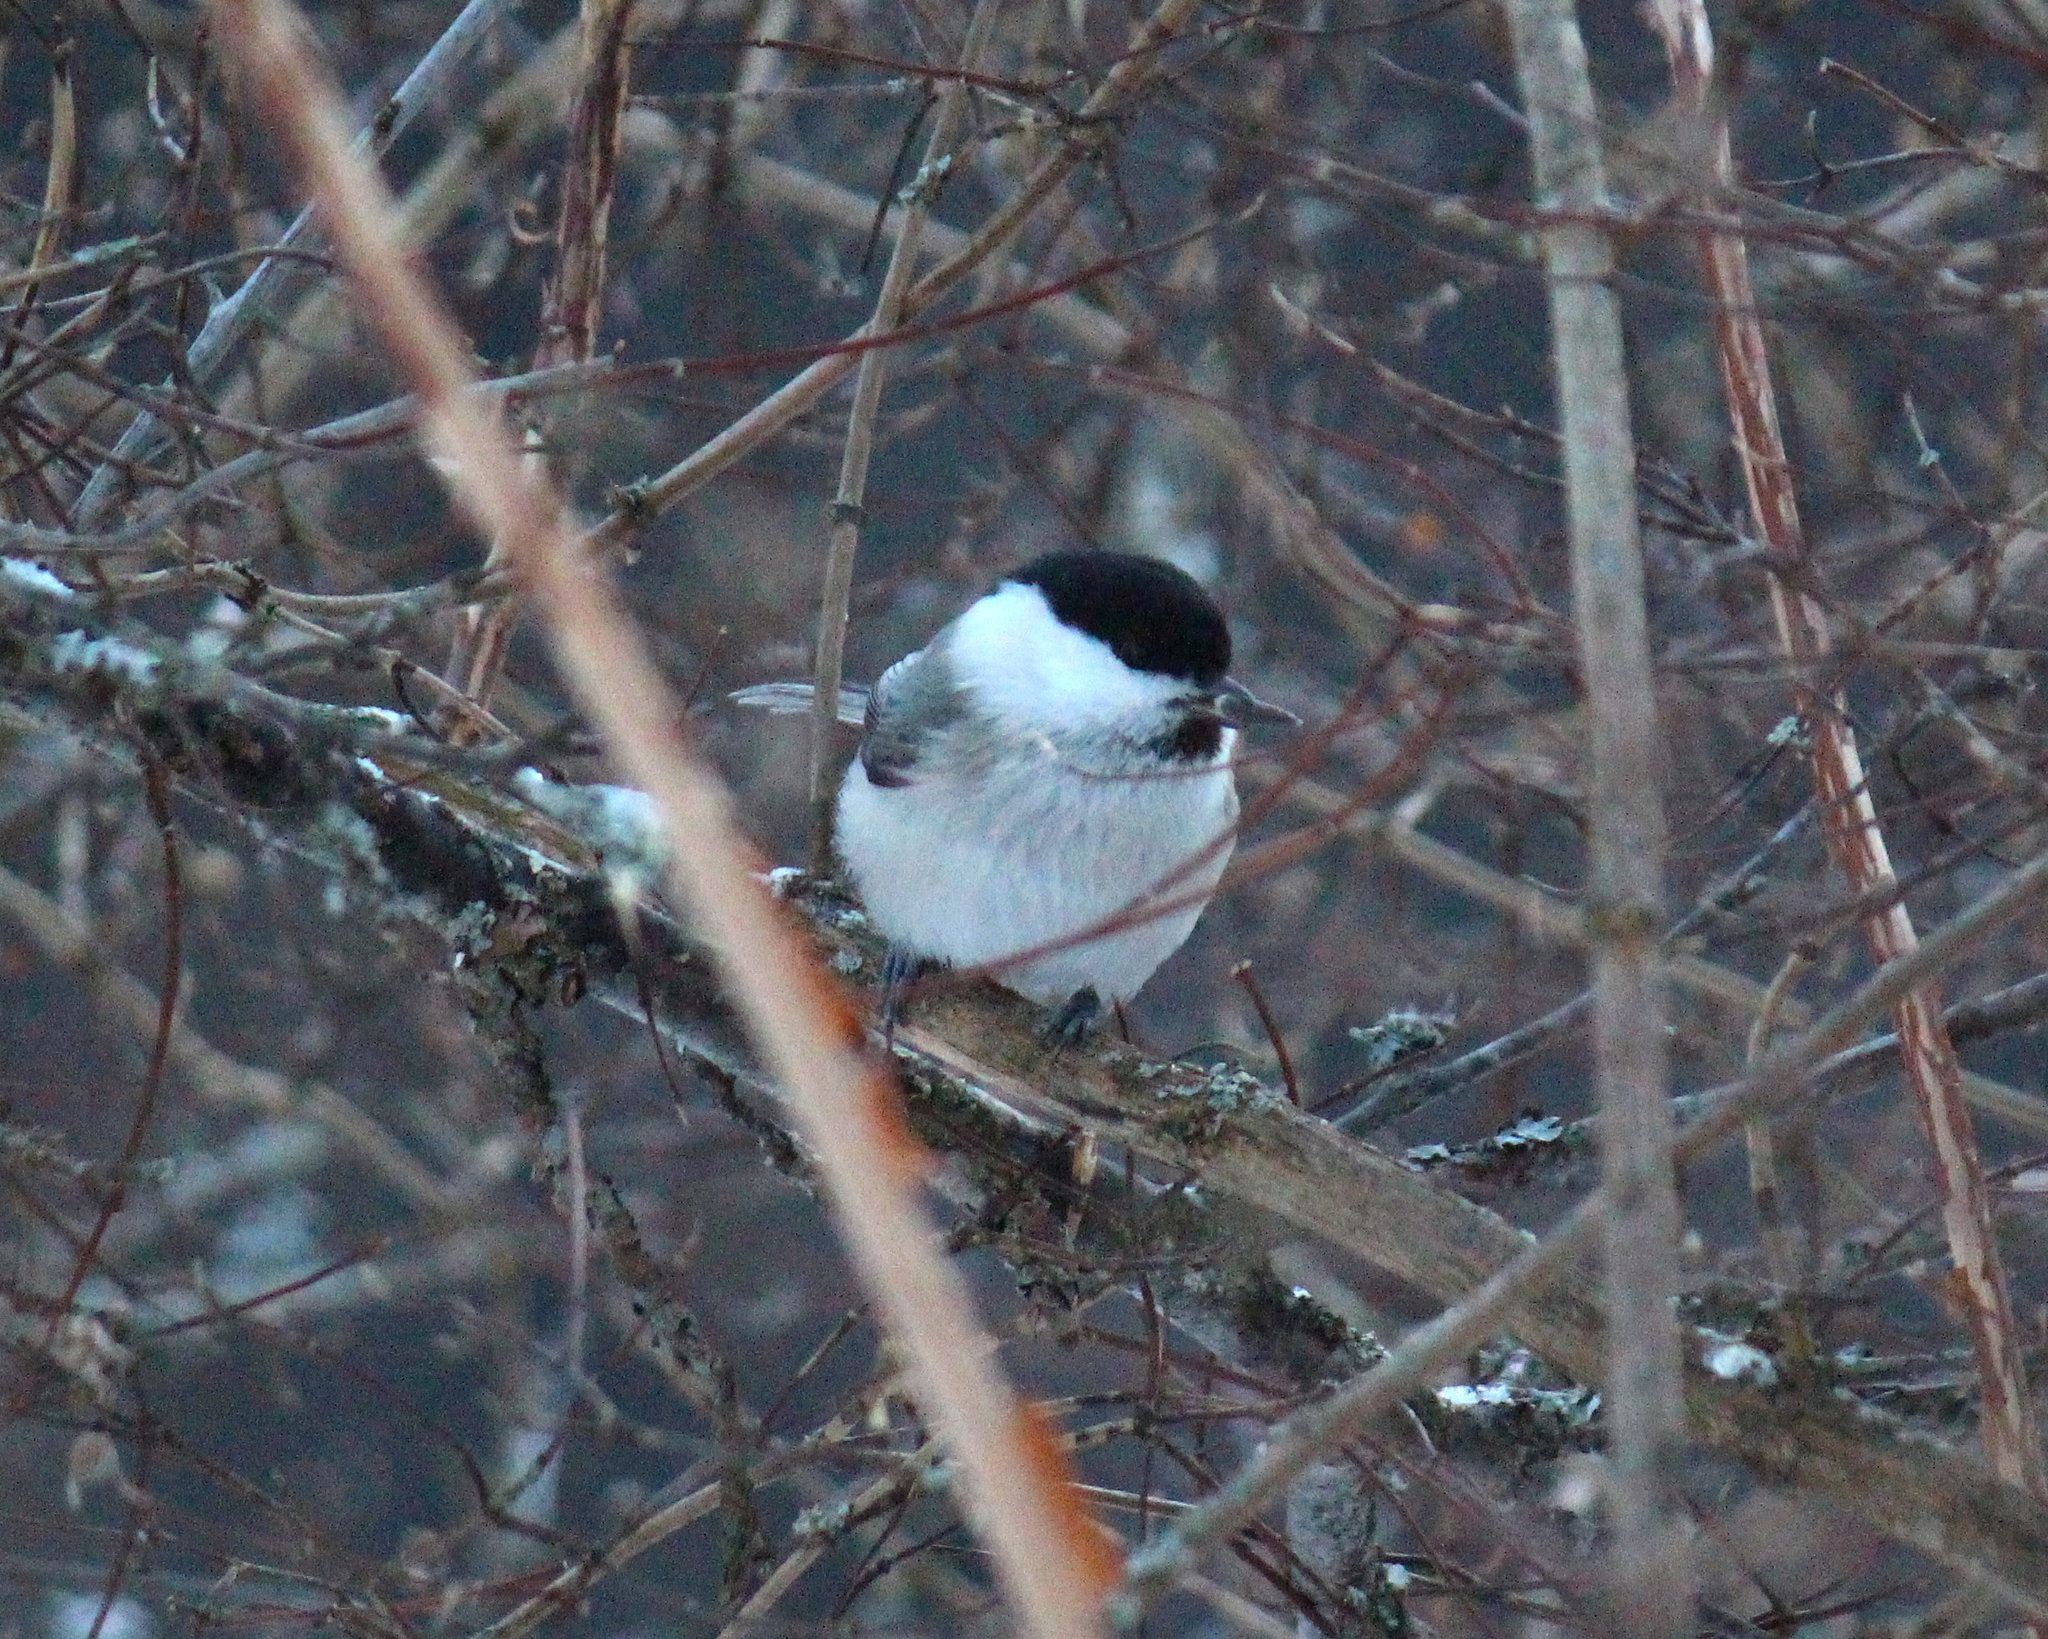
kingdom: Animalia
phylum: Chordata
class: Aves
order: Passeriformes
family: Paridae
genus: Poecile
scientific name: Poecile montanus
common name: Willow tit
